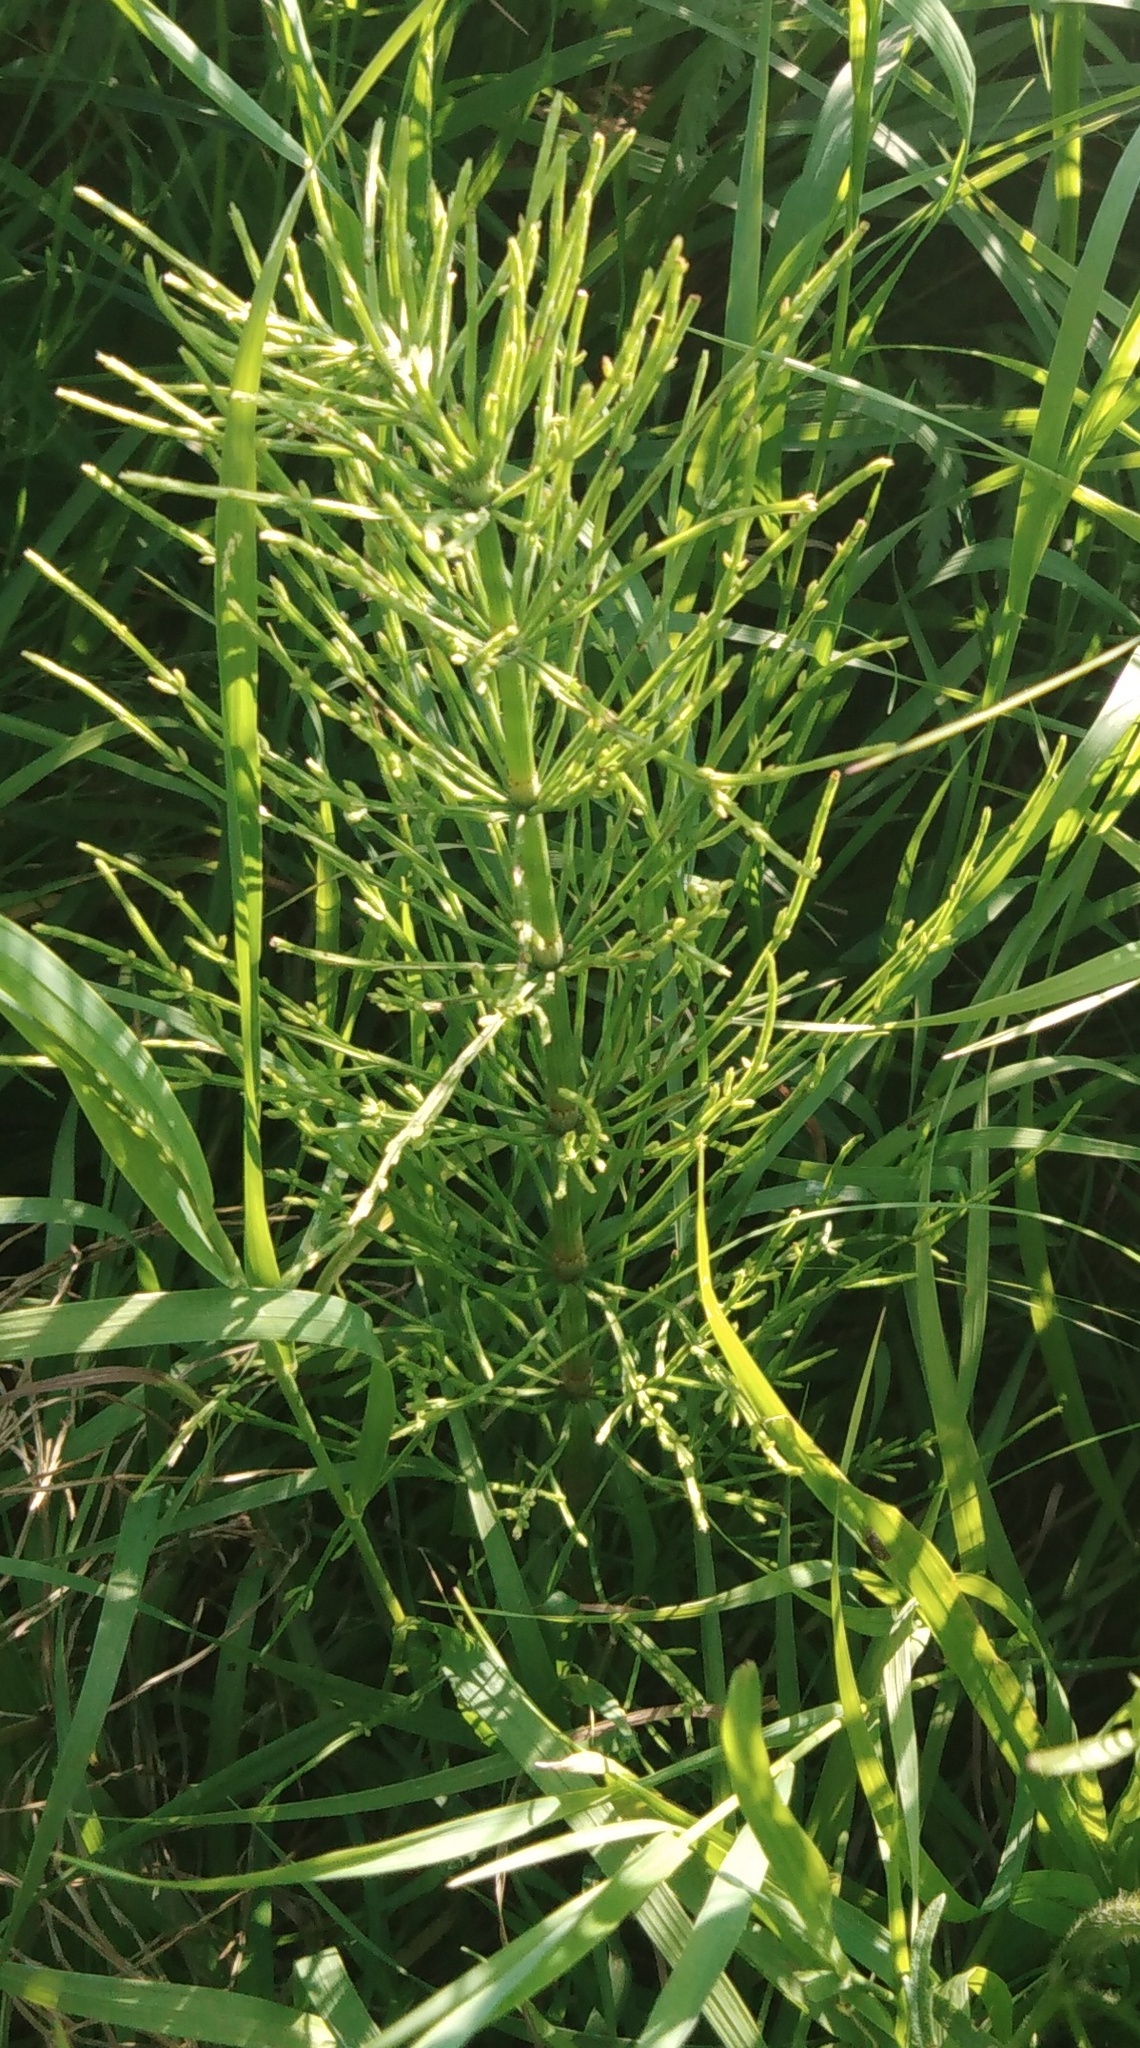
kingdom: Plantae
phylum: Tracheophyta
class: Polypodiopsida
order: Equisetales
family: Equisetaceae
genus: Equisetum
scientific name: Equisetum arvense
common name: Field horsetail
